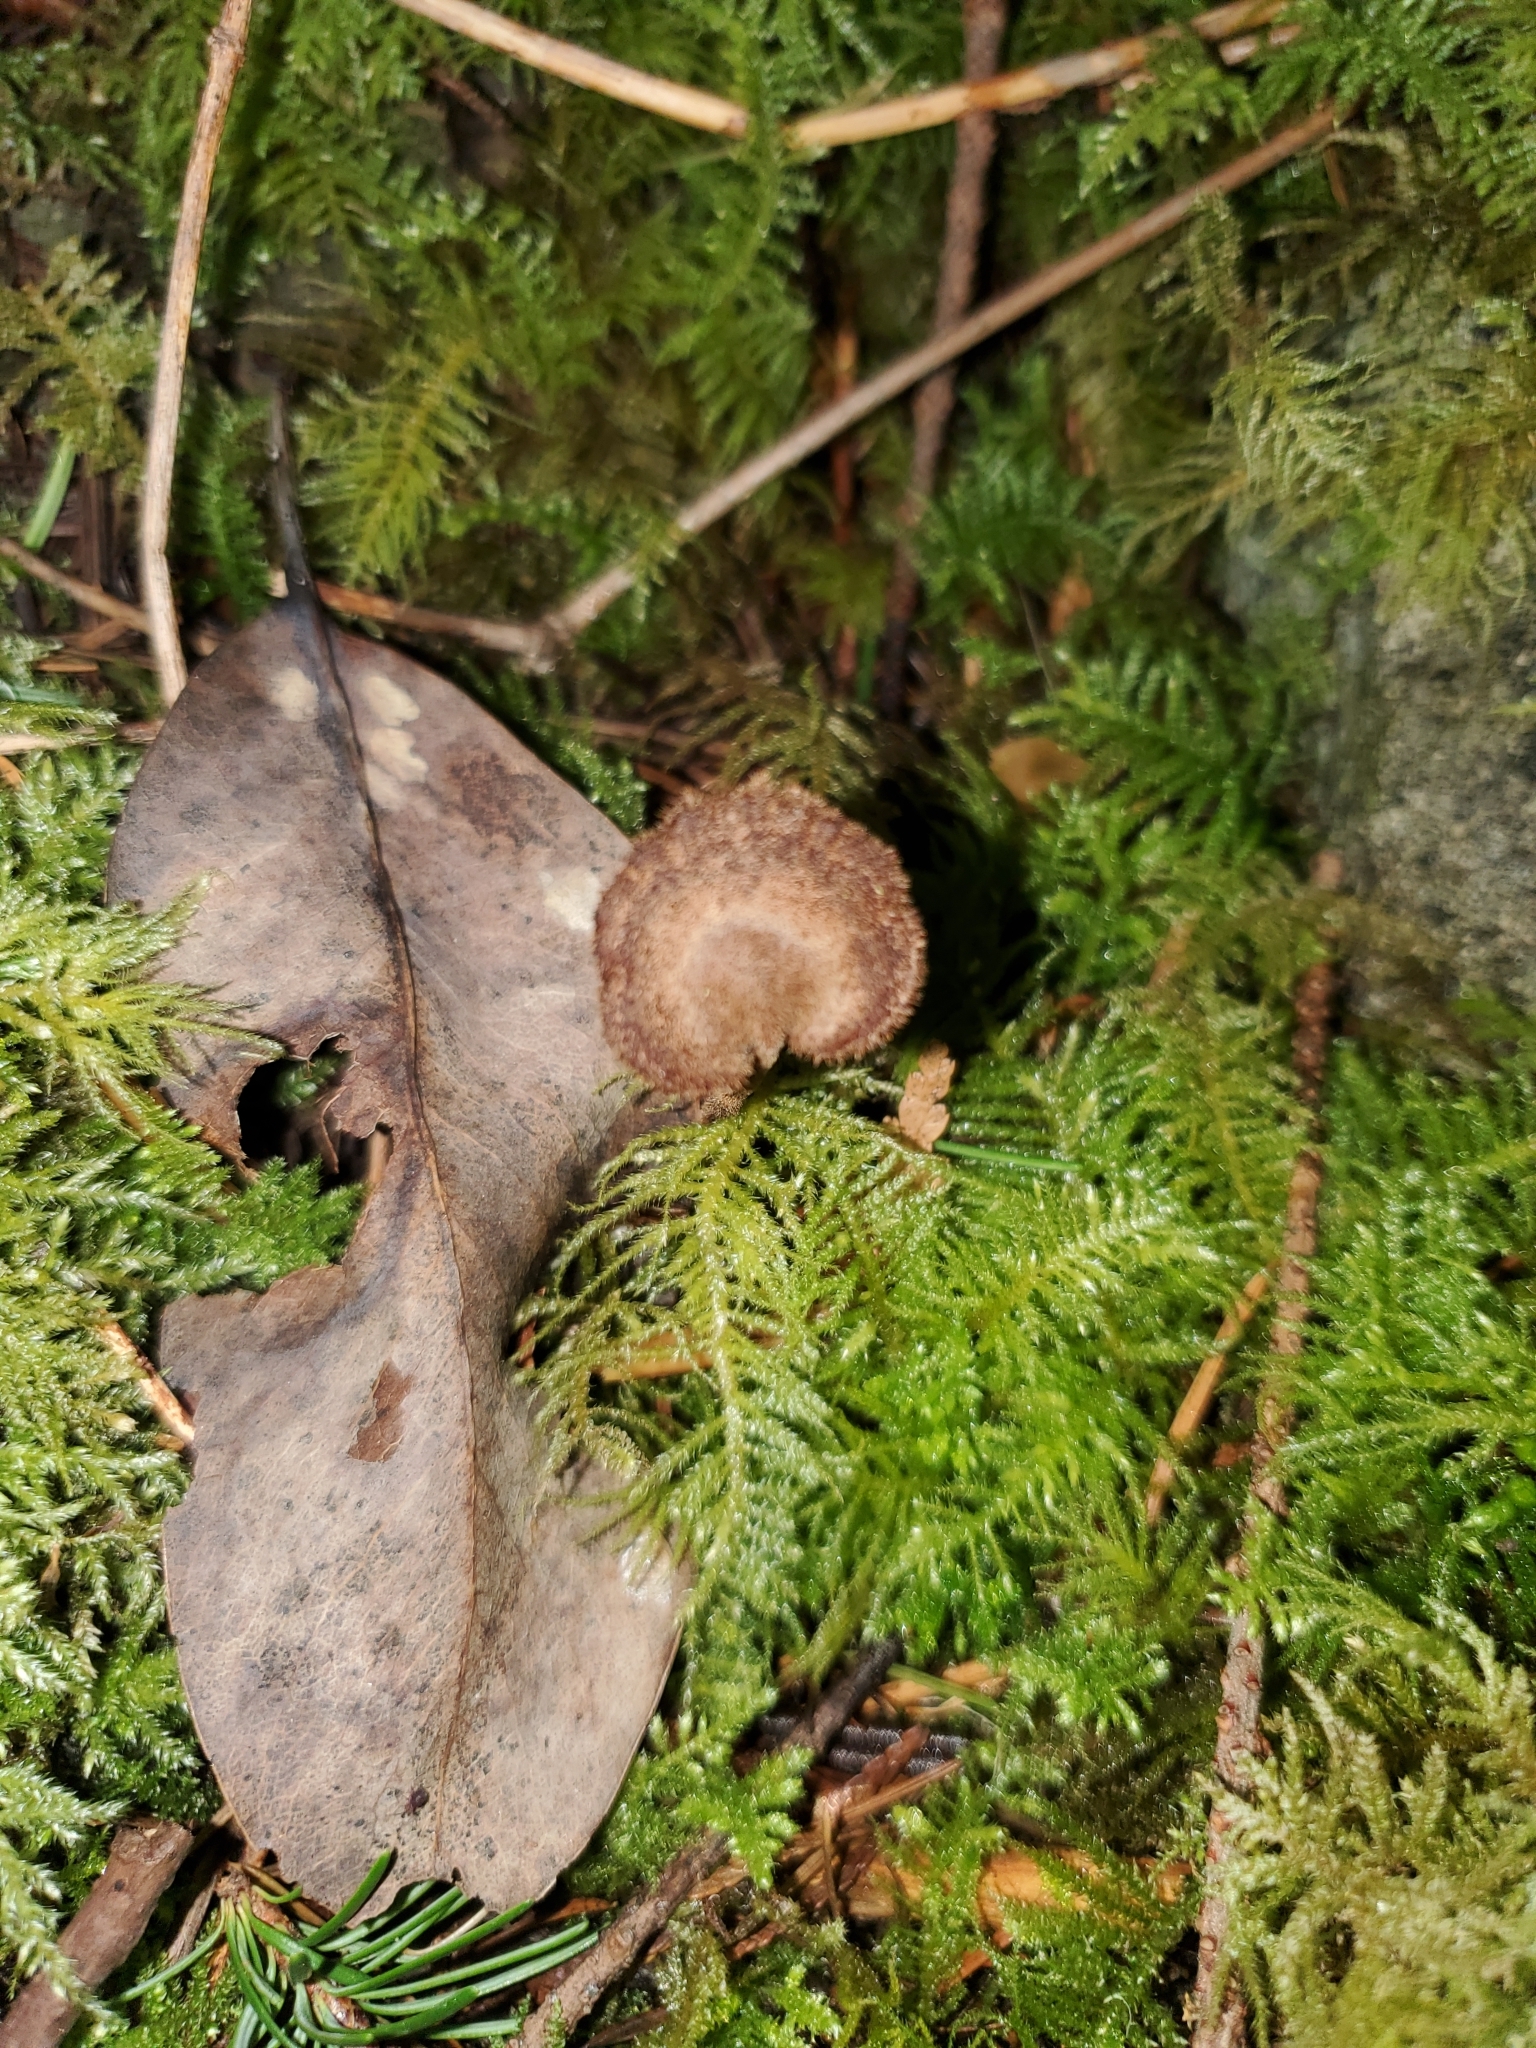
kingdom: Fungi
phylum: Basidiomycota
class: Agaricomycetes
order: Russulales
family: Auriscalpiaceae
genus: Auriscalpium
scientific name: Auriscalpium vulgare
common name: Earpick fungus
